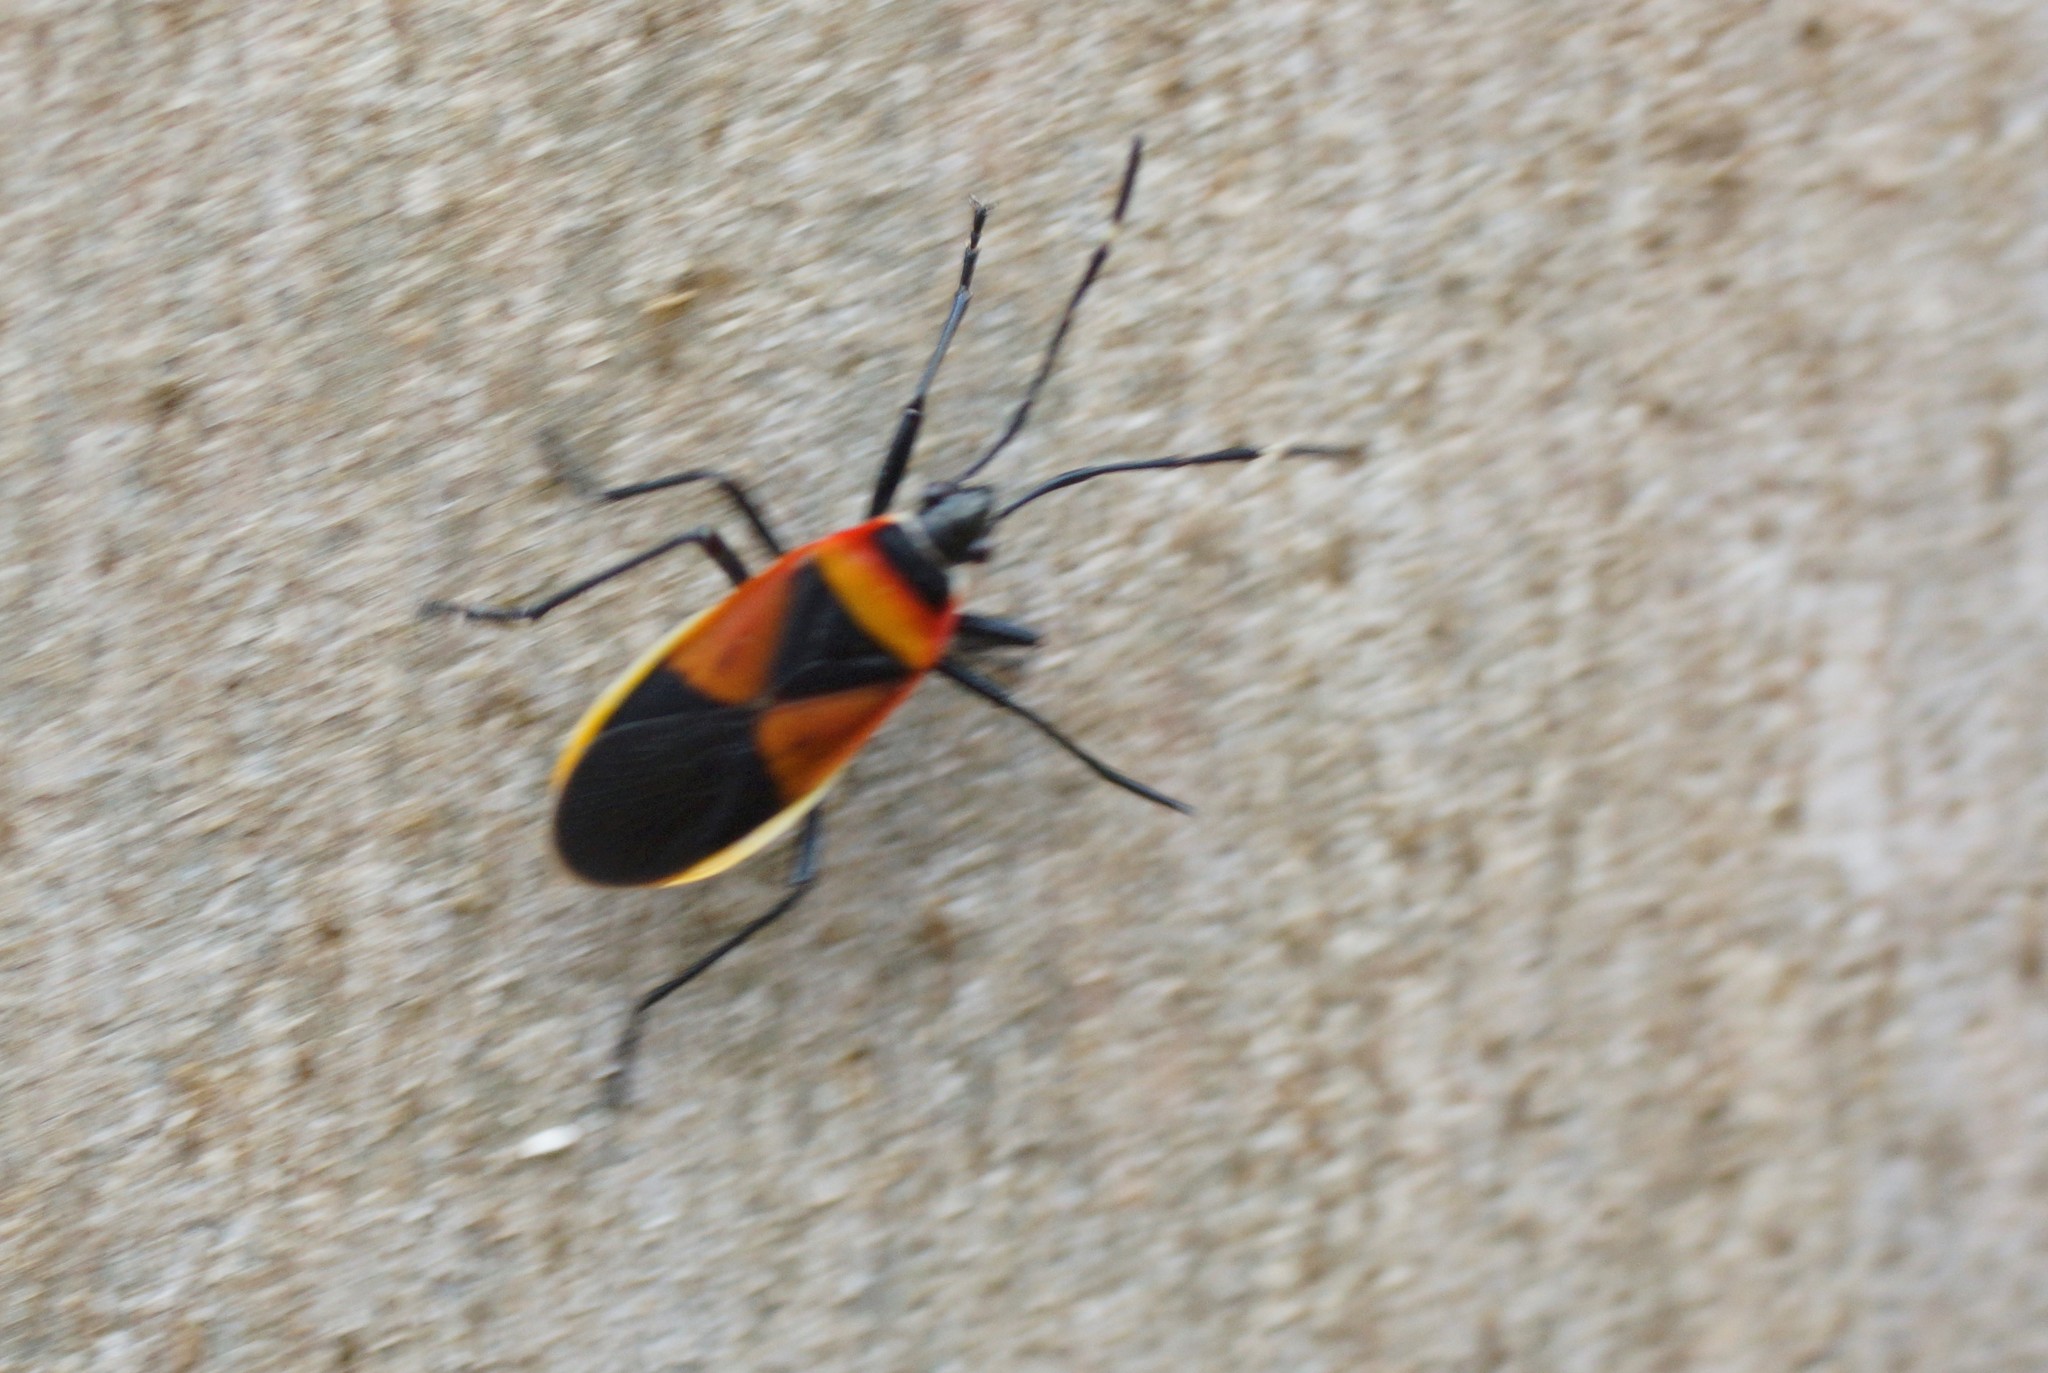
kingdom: Animalia
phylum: Arthropoda
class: Insecta
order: Hemiptera
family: Pyrrhocoridae
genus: Dindymus
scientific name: Dindymus
